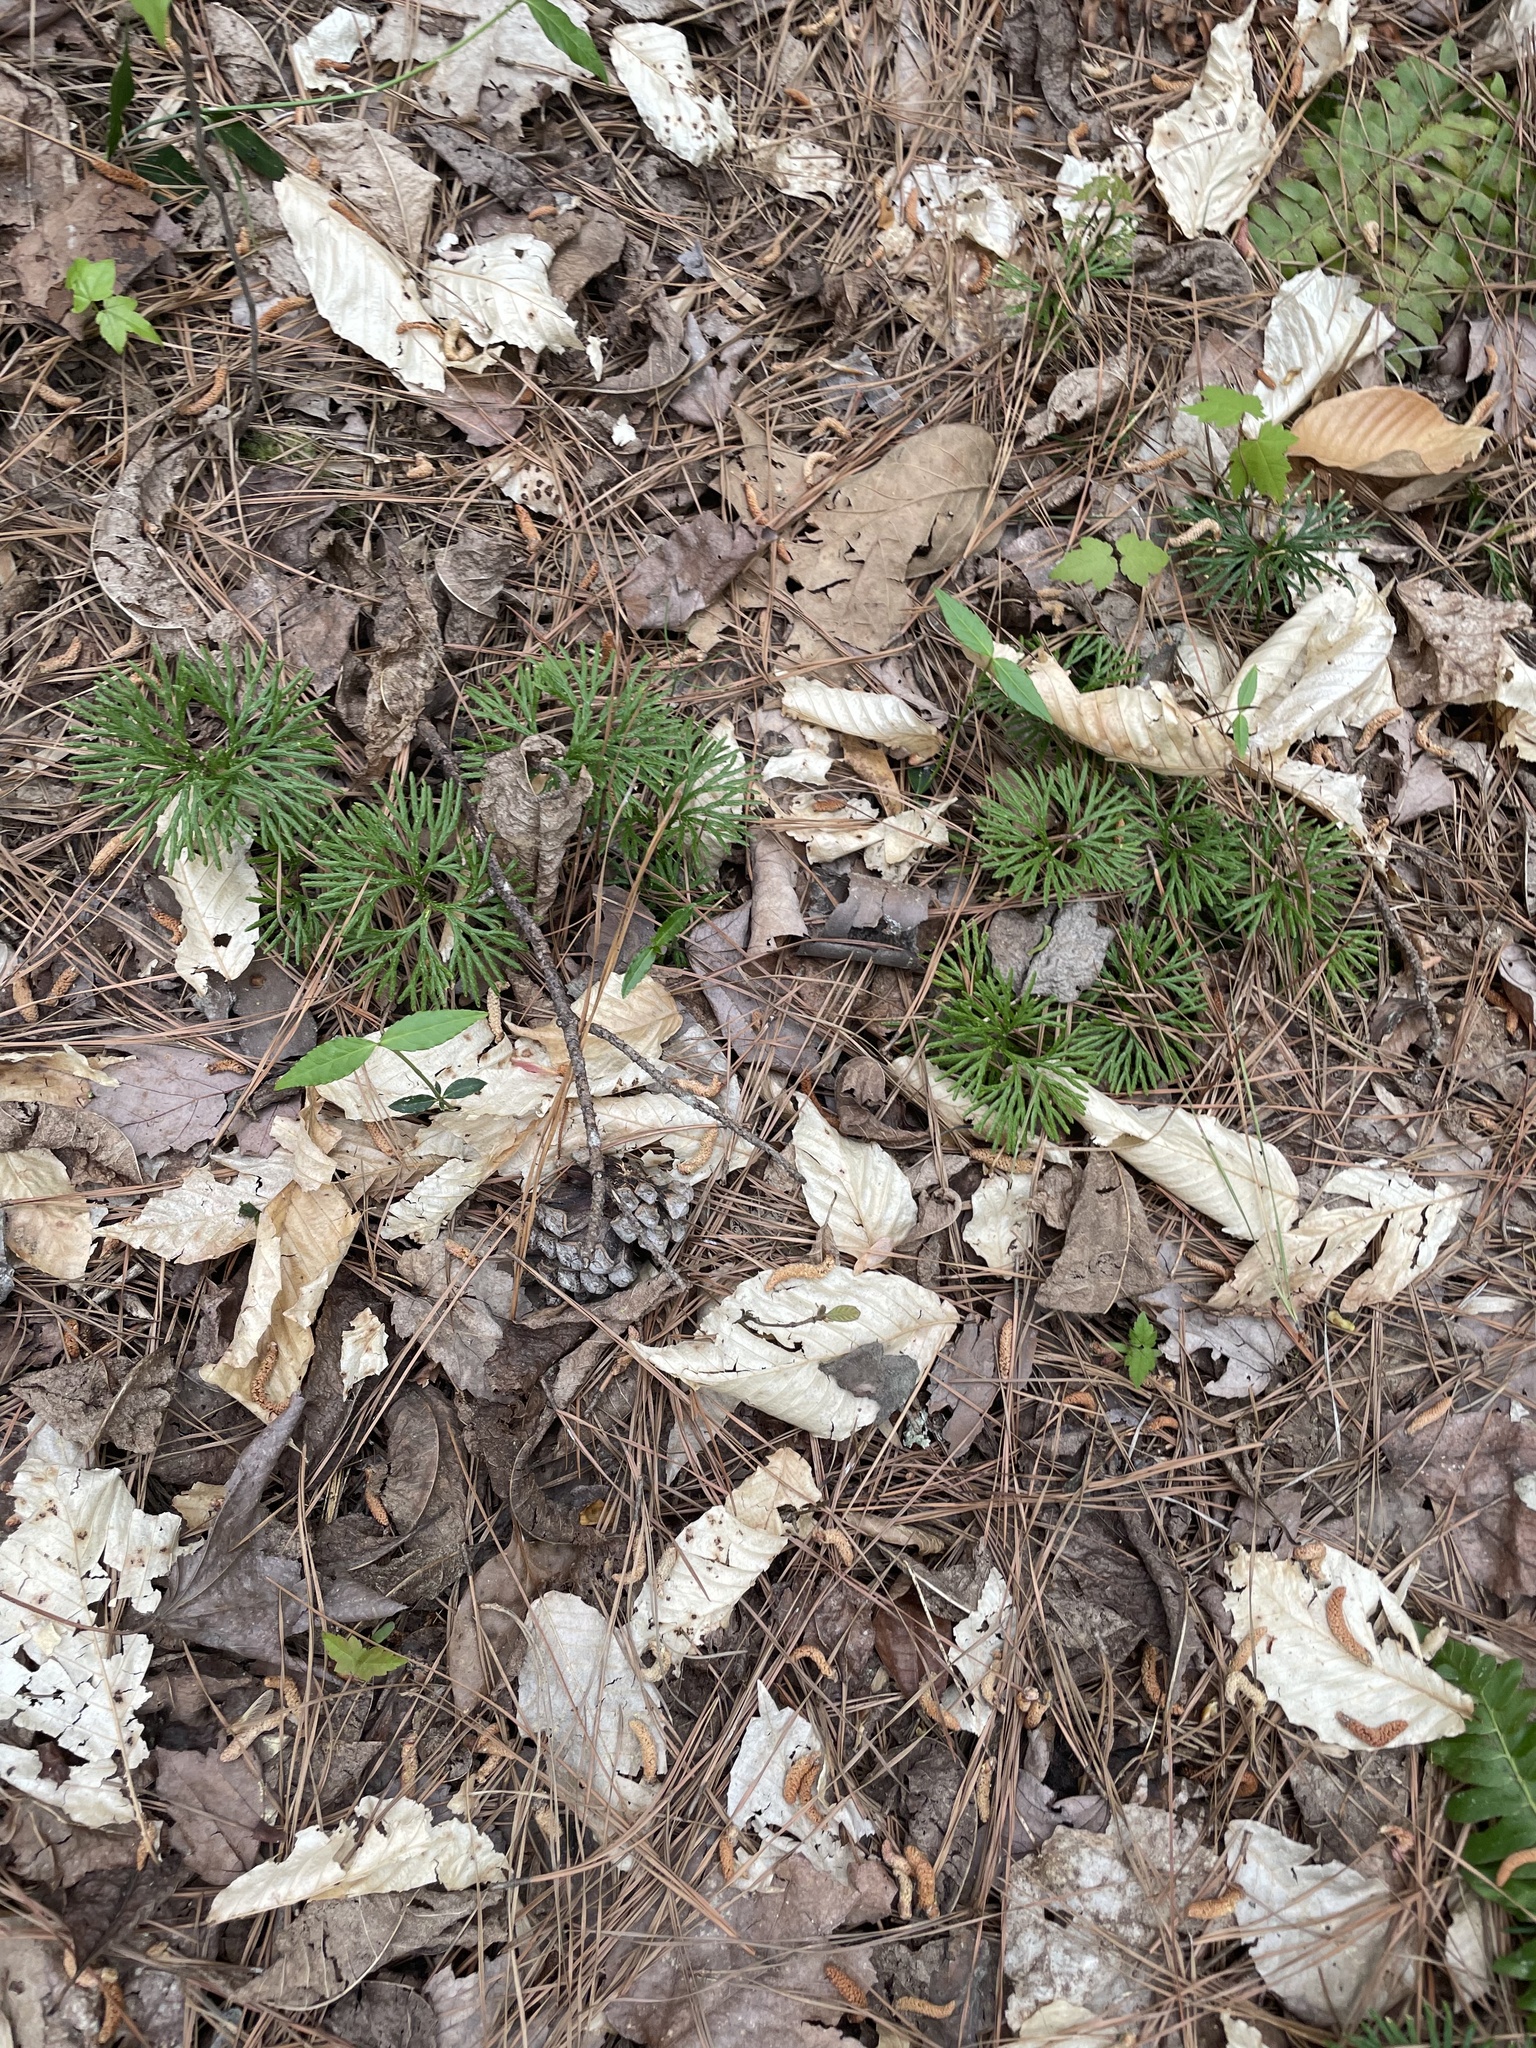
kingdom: Plantae
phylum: Tracheophyta
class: Lycopodiopsida
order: Lycopodiales
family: Lycopodiaceae
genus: Diphasiastrum
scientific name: Diphasiastrum digitatum
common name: Southern running-pine
